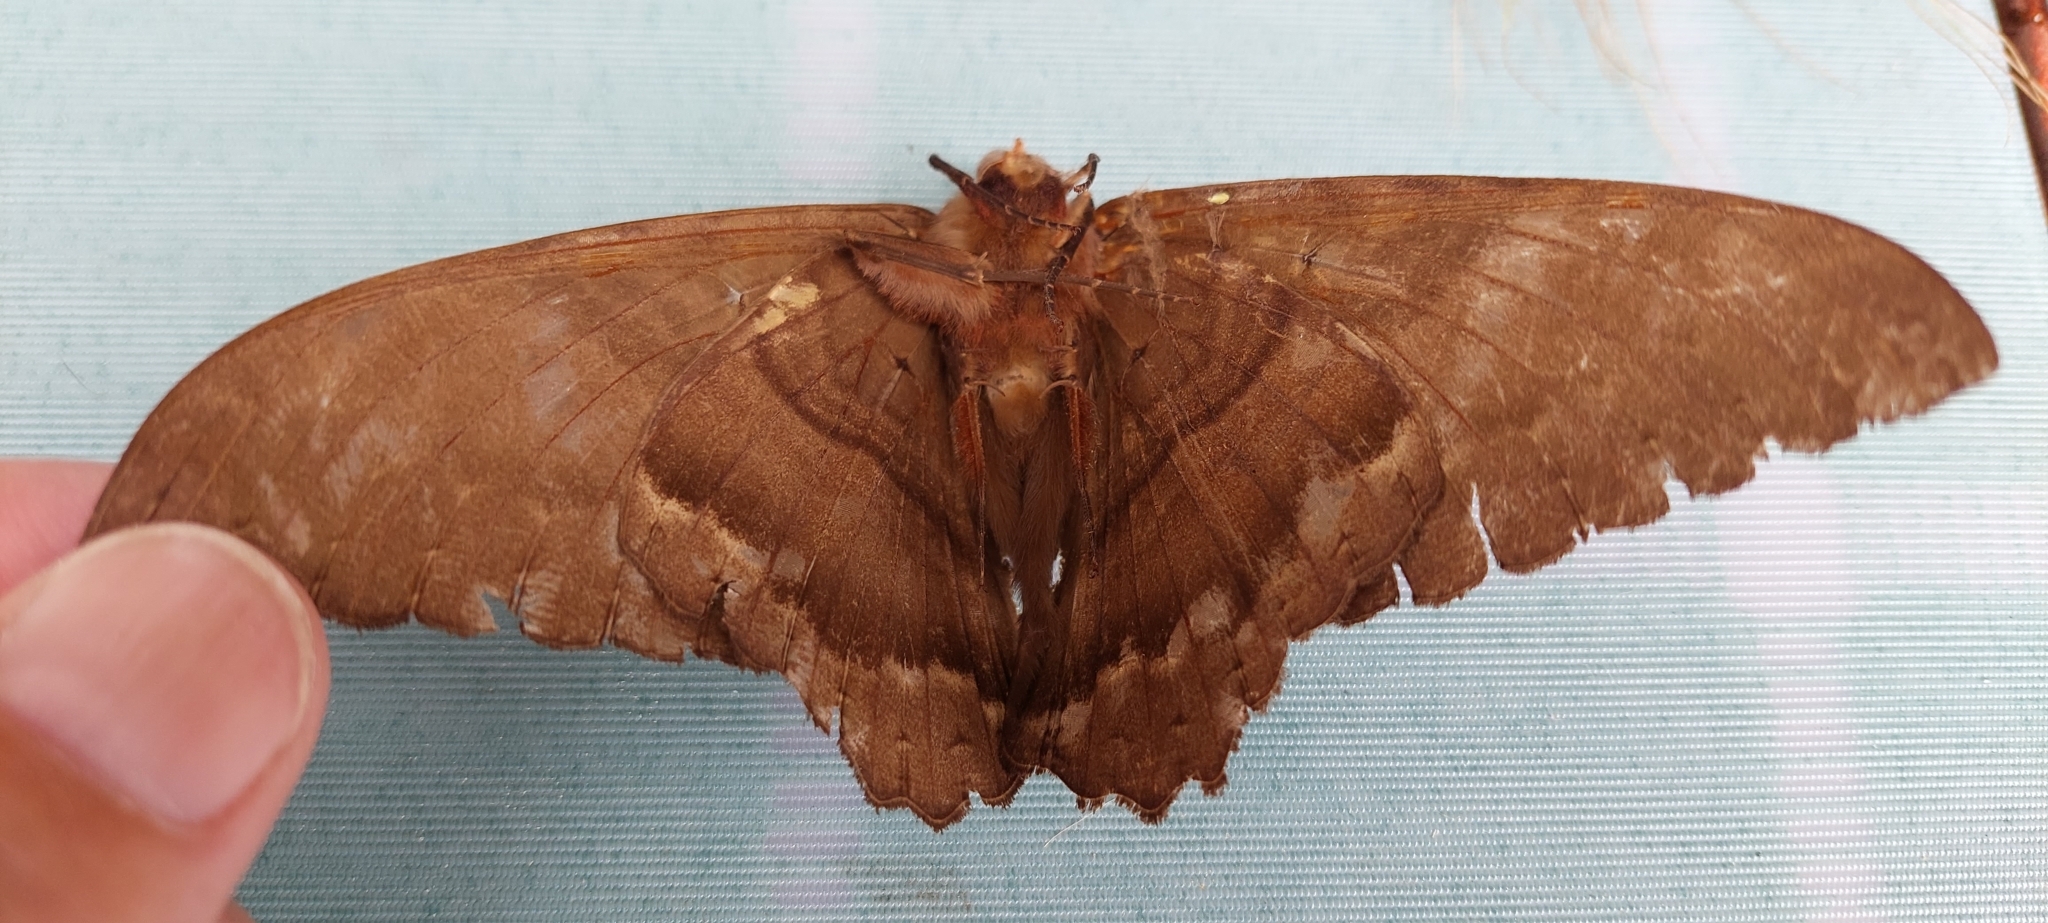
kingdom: Animalia
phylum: Arthropoda
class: Insecta
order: Lepidoptera
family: Erebidae
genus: Ascalapha
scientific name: Ascalapha odorata
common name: Black witch
